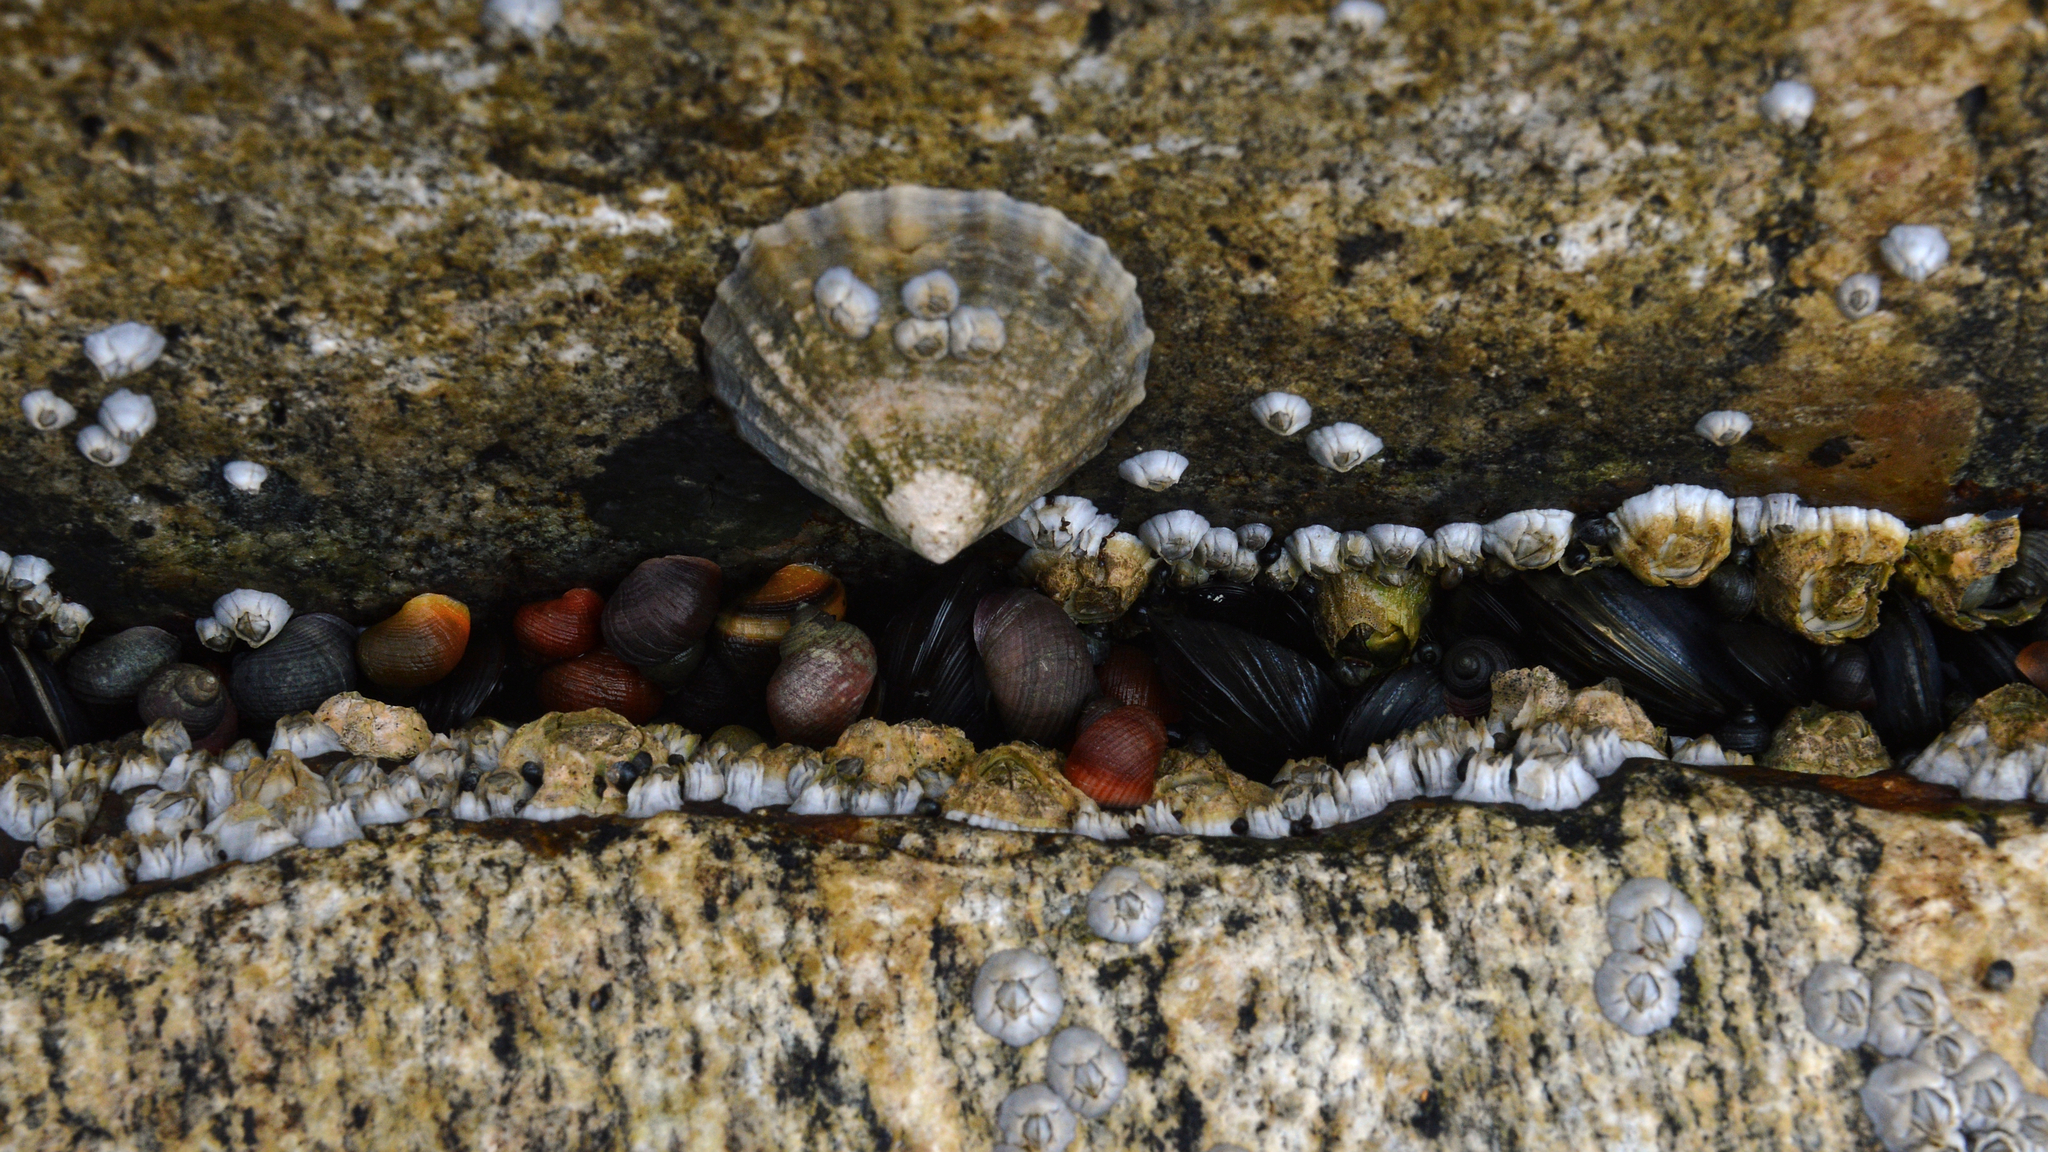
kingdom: Animalia
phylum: Mollusca
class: Gastropoda
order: Littorinimorpha
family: Littorinidae
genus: Littorina
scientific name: Littorina littorea
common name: Common periwinkle
